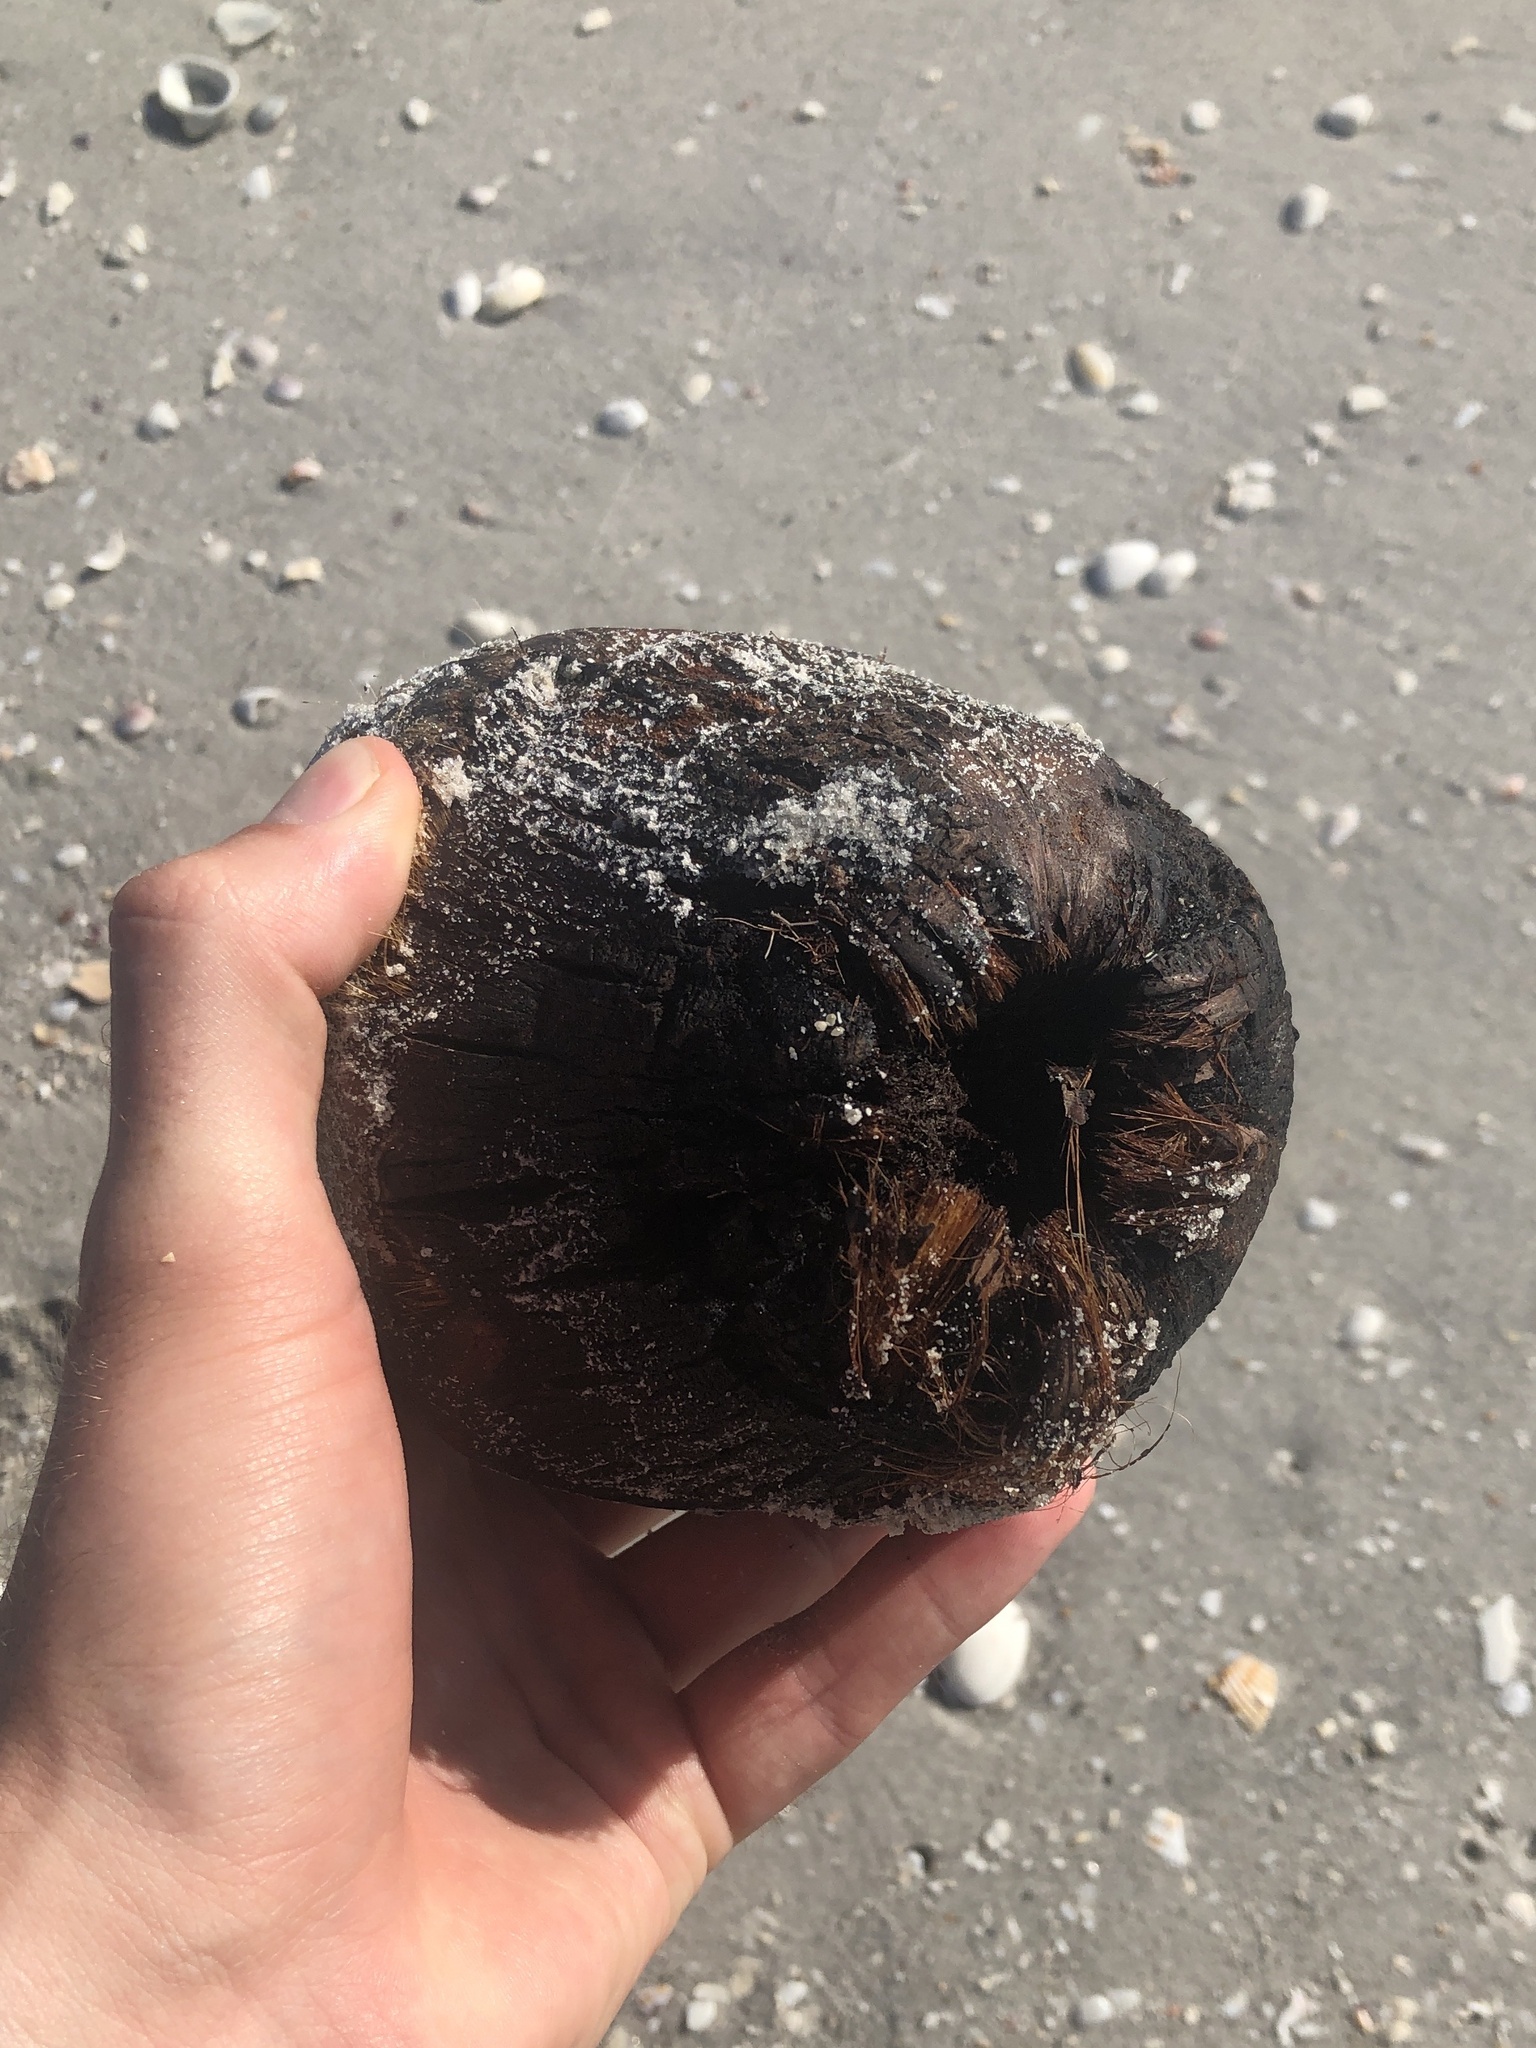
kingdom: Plantae
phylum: Tracheophyta
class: Liliopsida
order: Arecales
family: Arecaceae
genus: Cocos
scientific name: Cocos nucifera
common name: Coconut palm
